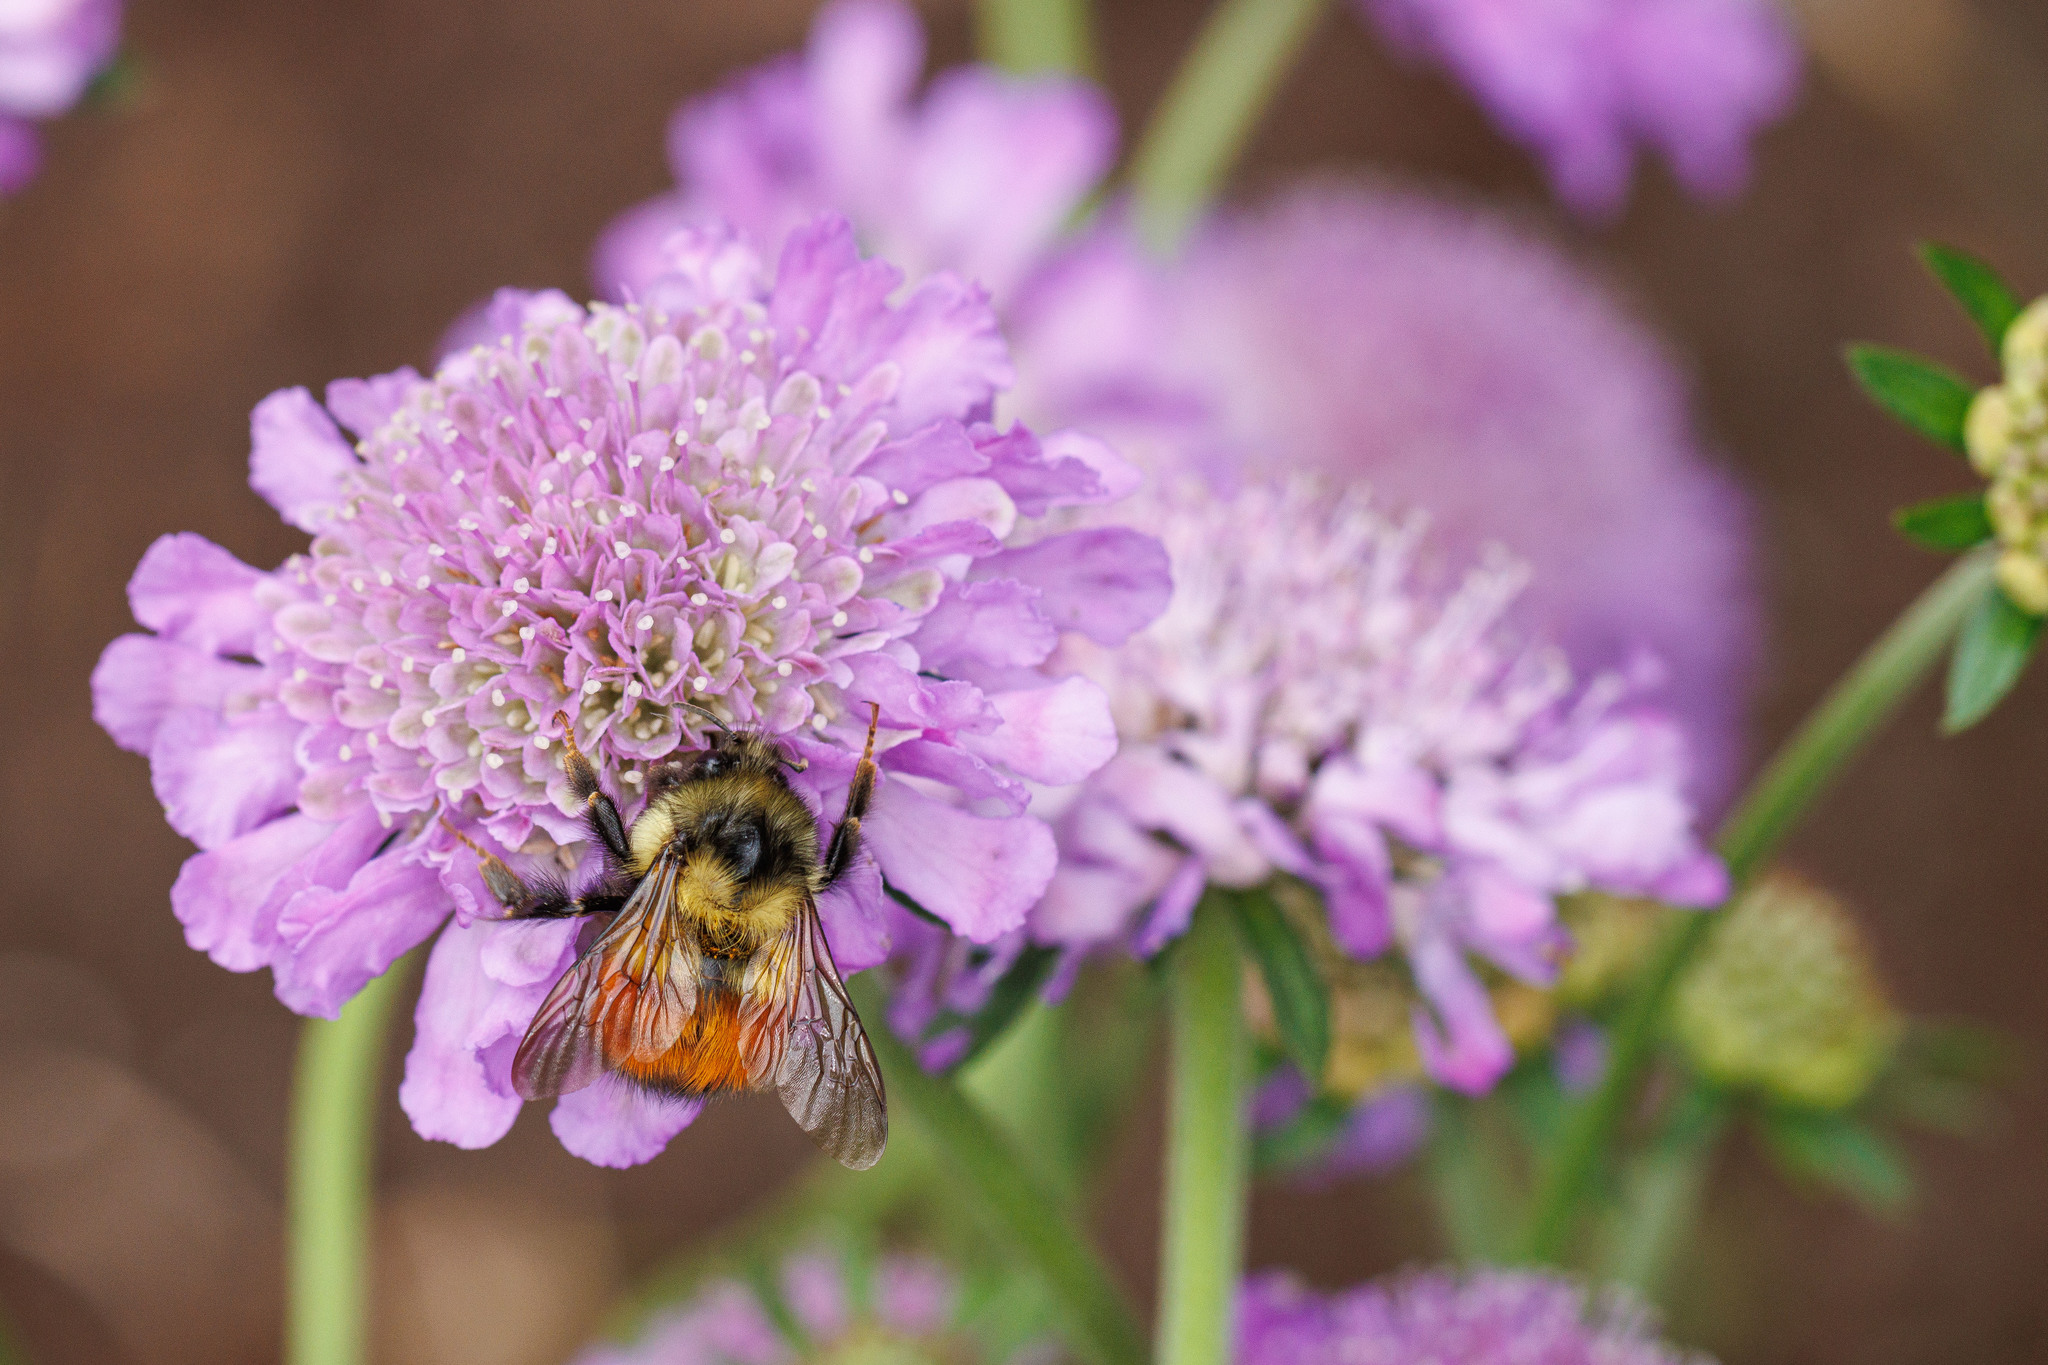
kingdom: Animalia
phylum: Arthropoda
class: Insecta
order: Hymenoptera
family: Apidae
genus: Bombus
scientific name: Bombus melanopygus
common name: Black tail bumble bee
